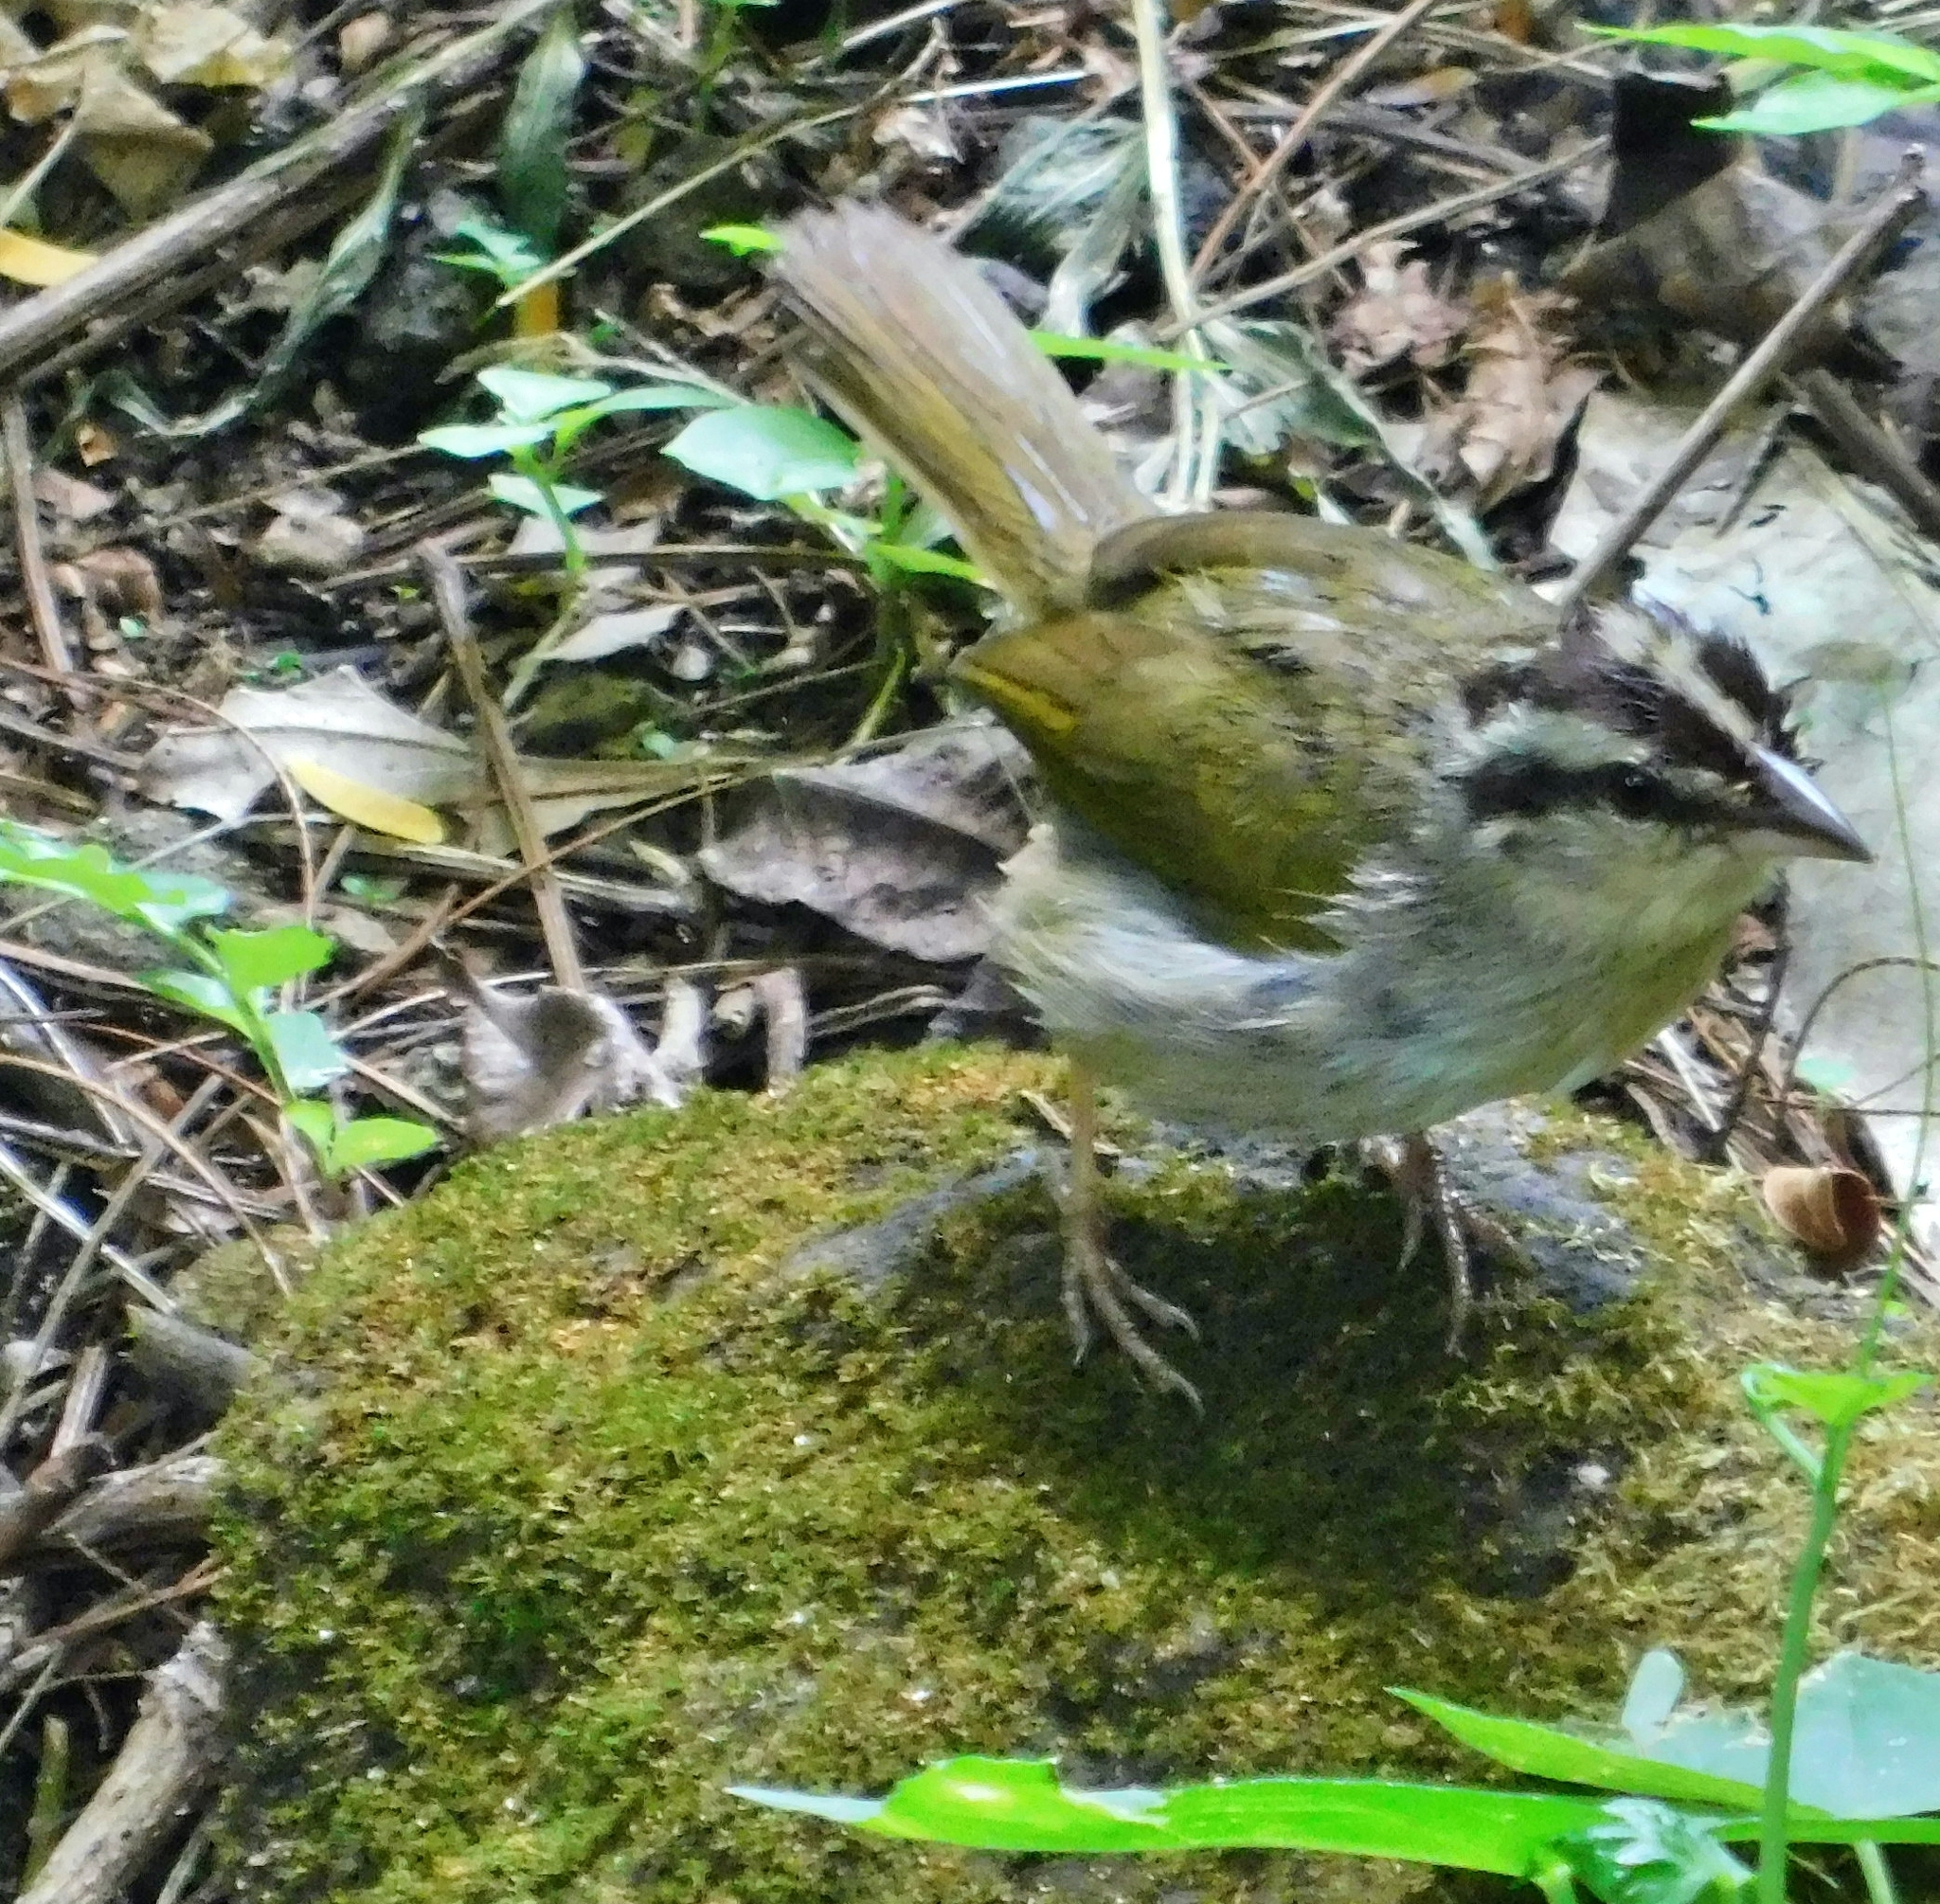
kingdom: Animalia
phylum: Chordata
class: Aves
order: Passeriformes
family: Passerellidae
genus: Arremonops
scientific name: Arremonops rufivirgatus
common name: Olive sparrow
